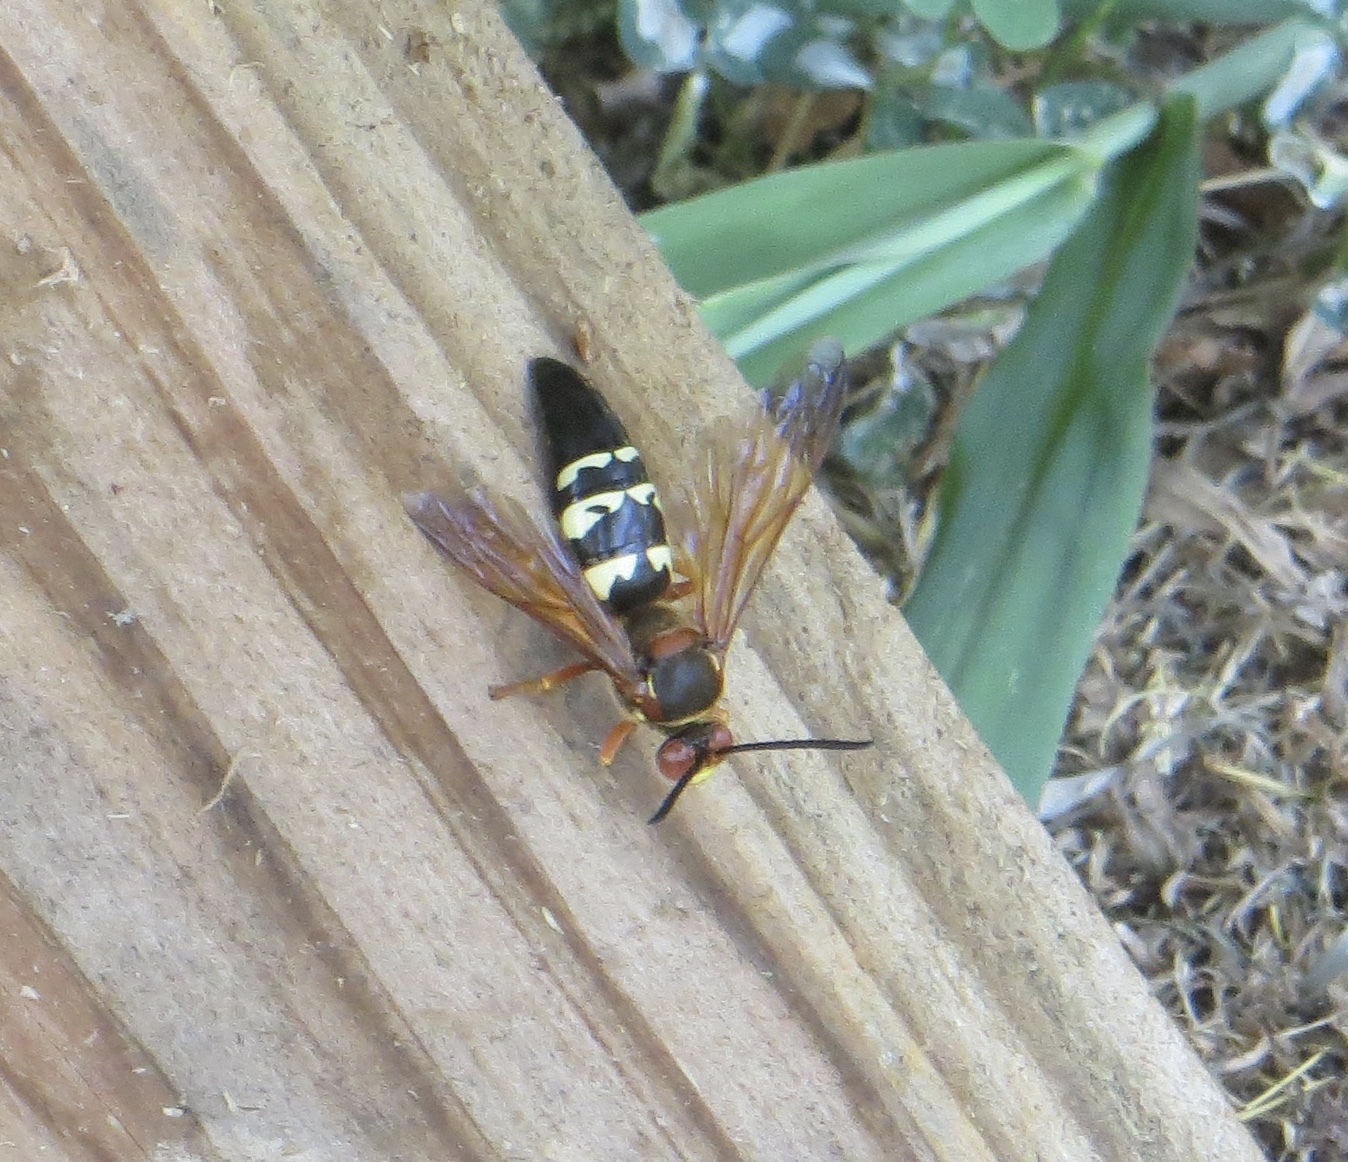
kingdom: Animalia
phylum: Arthropoda
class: Insecta
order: Hymenoptera
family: Crabronidae
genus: Sphecius
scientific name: Sphecius speciosus
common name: Cicada killer
